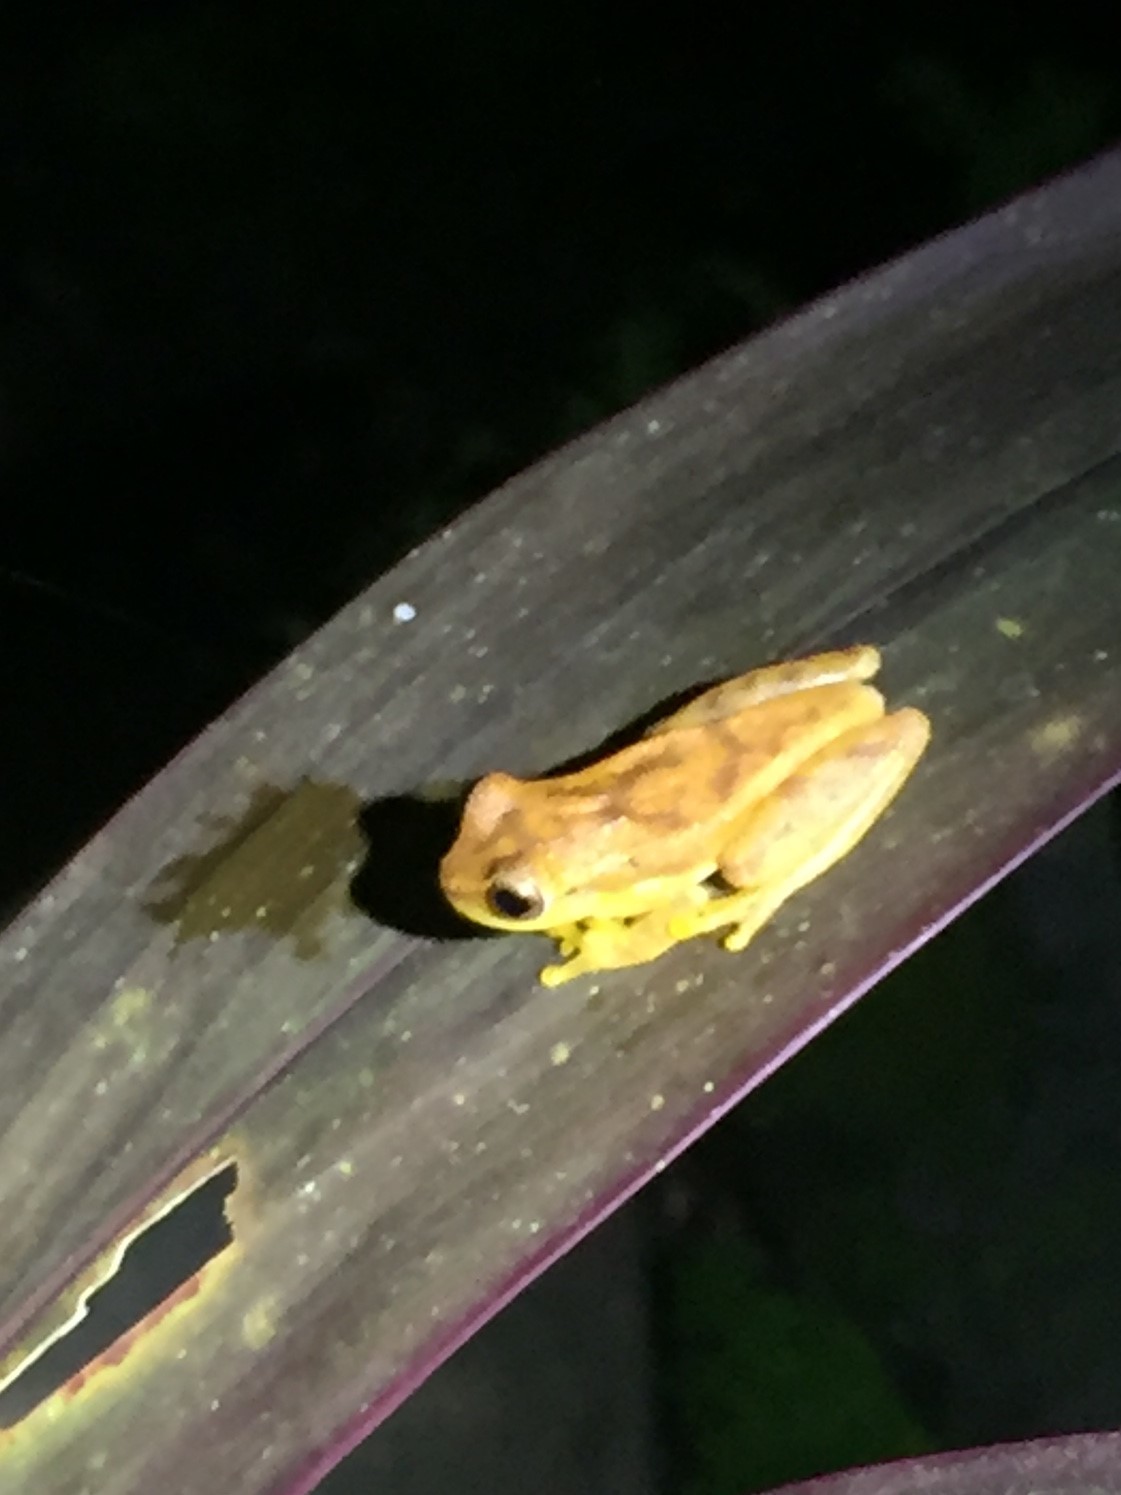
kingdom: Animalia
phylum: Chordata
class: Amphibia
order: Anura
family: Hylidae
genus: Dendropsophus
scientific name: Dendropsophus microcephalus
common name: Small-headed treefrog
